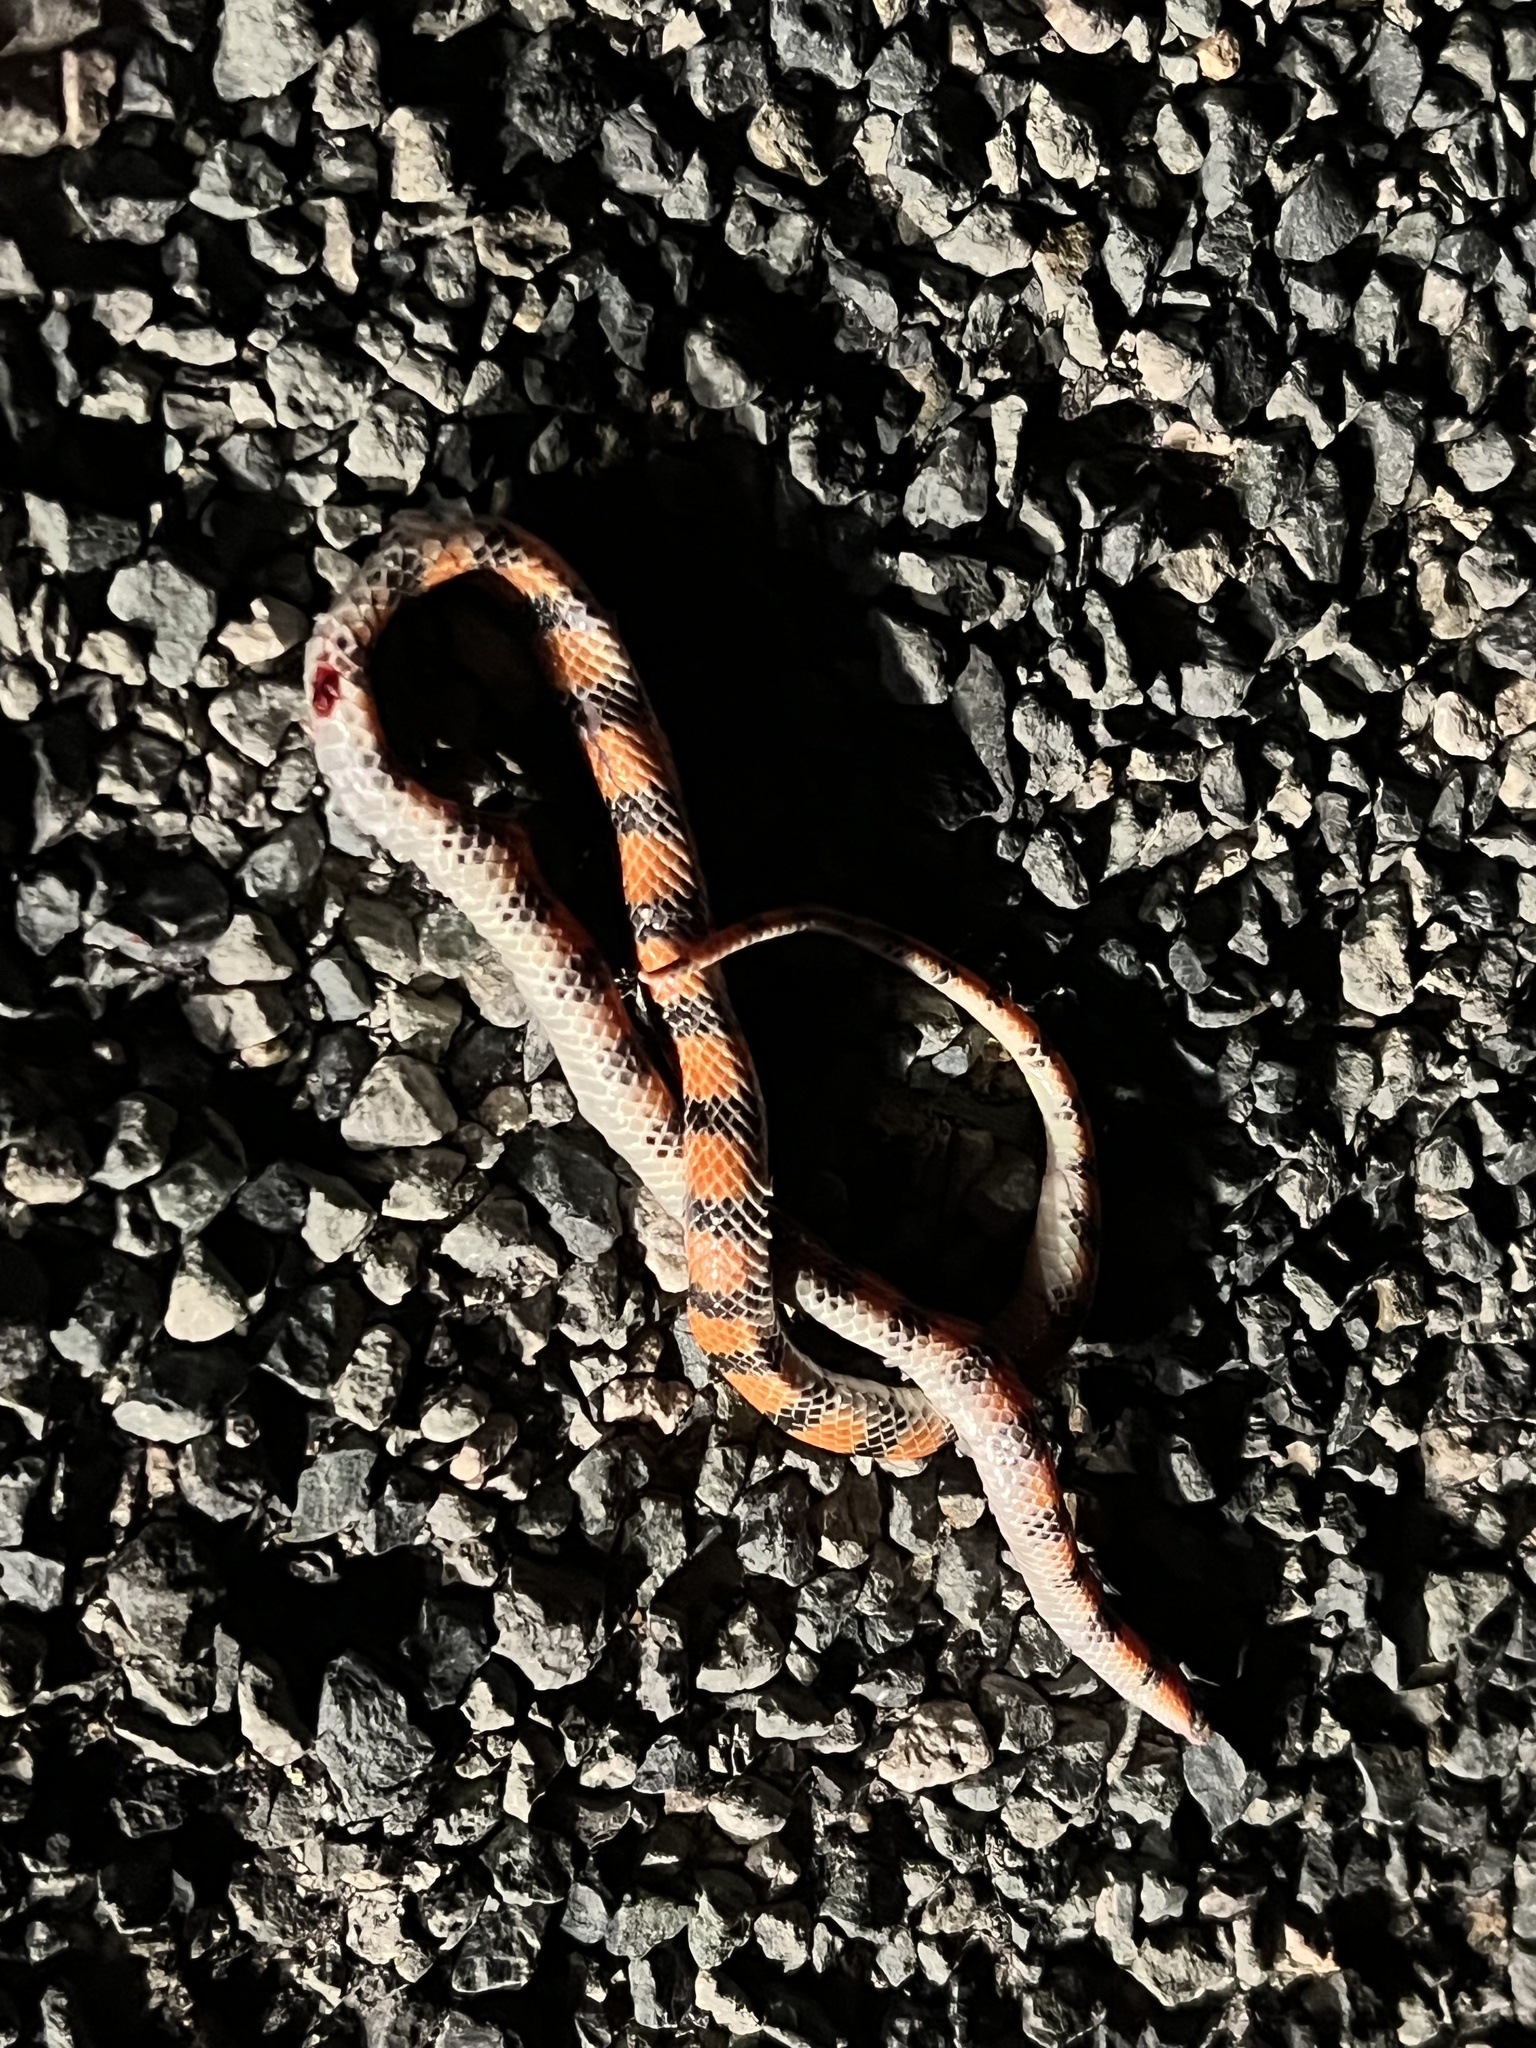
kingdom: Animalia
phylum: Chordata
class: Squamata
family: Colubridae
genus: Sonora
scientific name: Sonora semiannulata
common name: Ground snake
